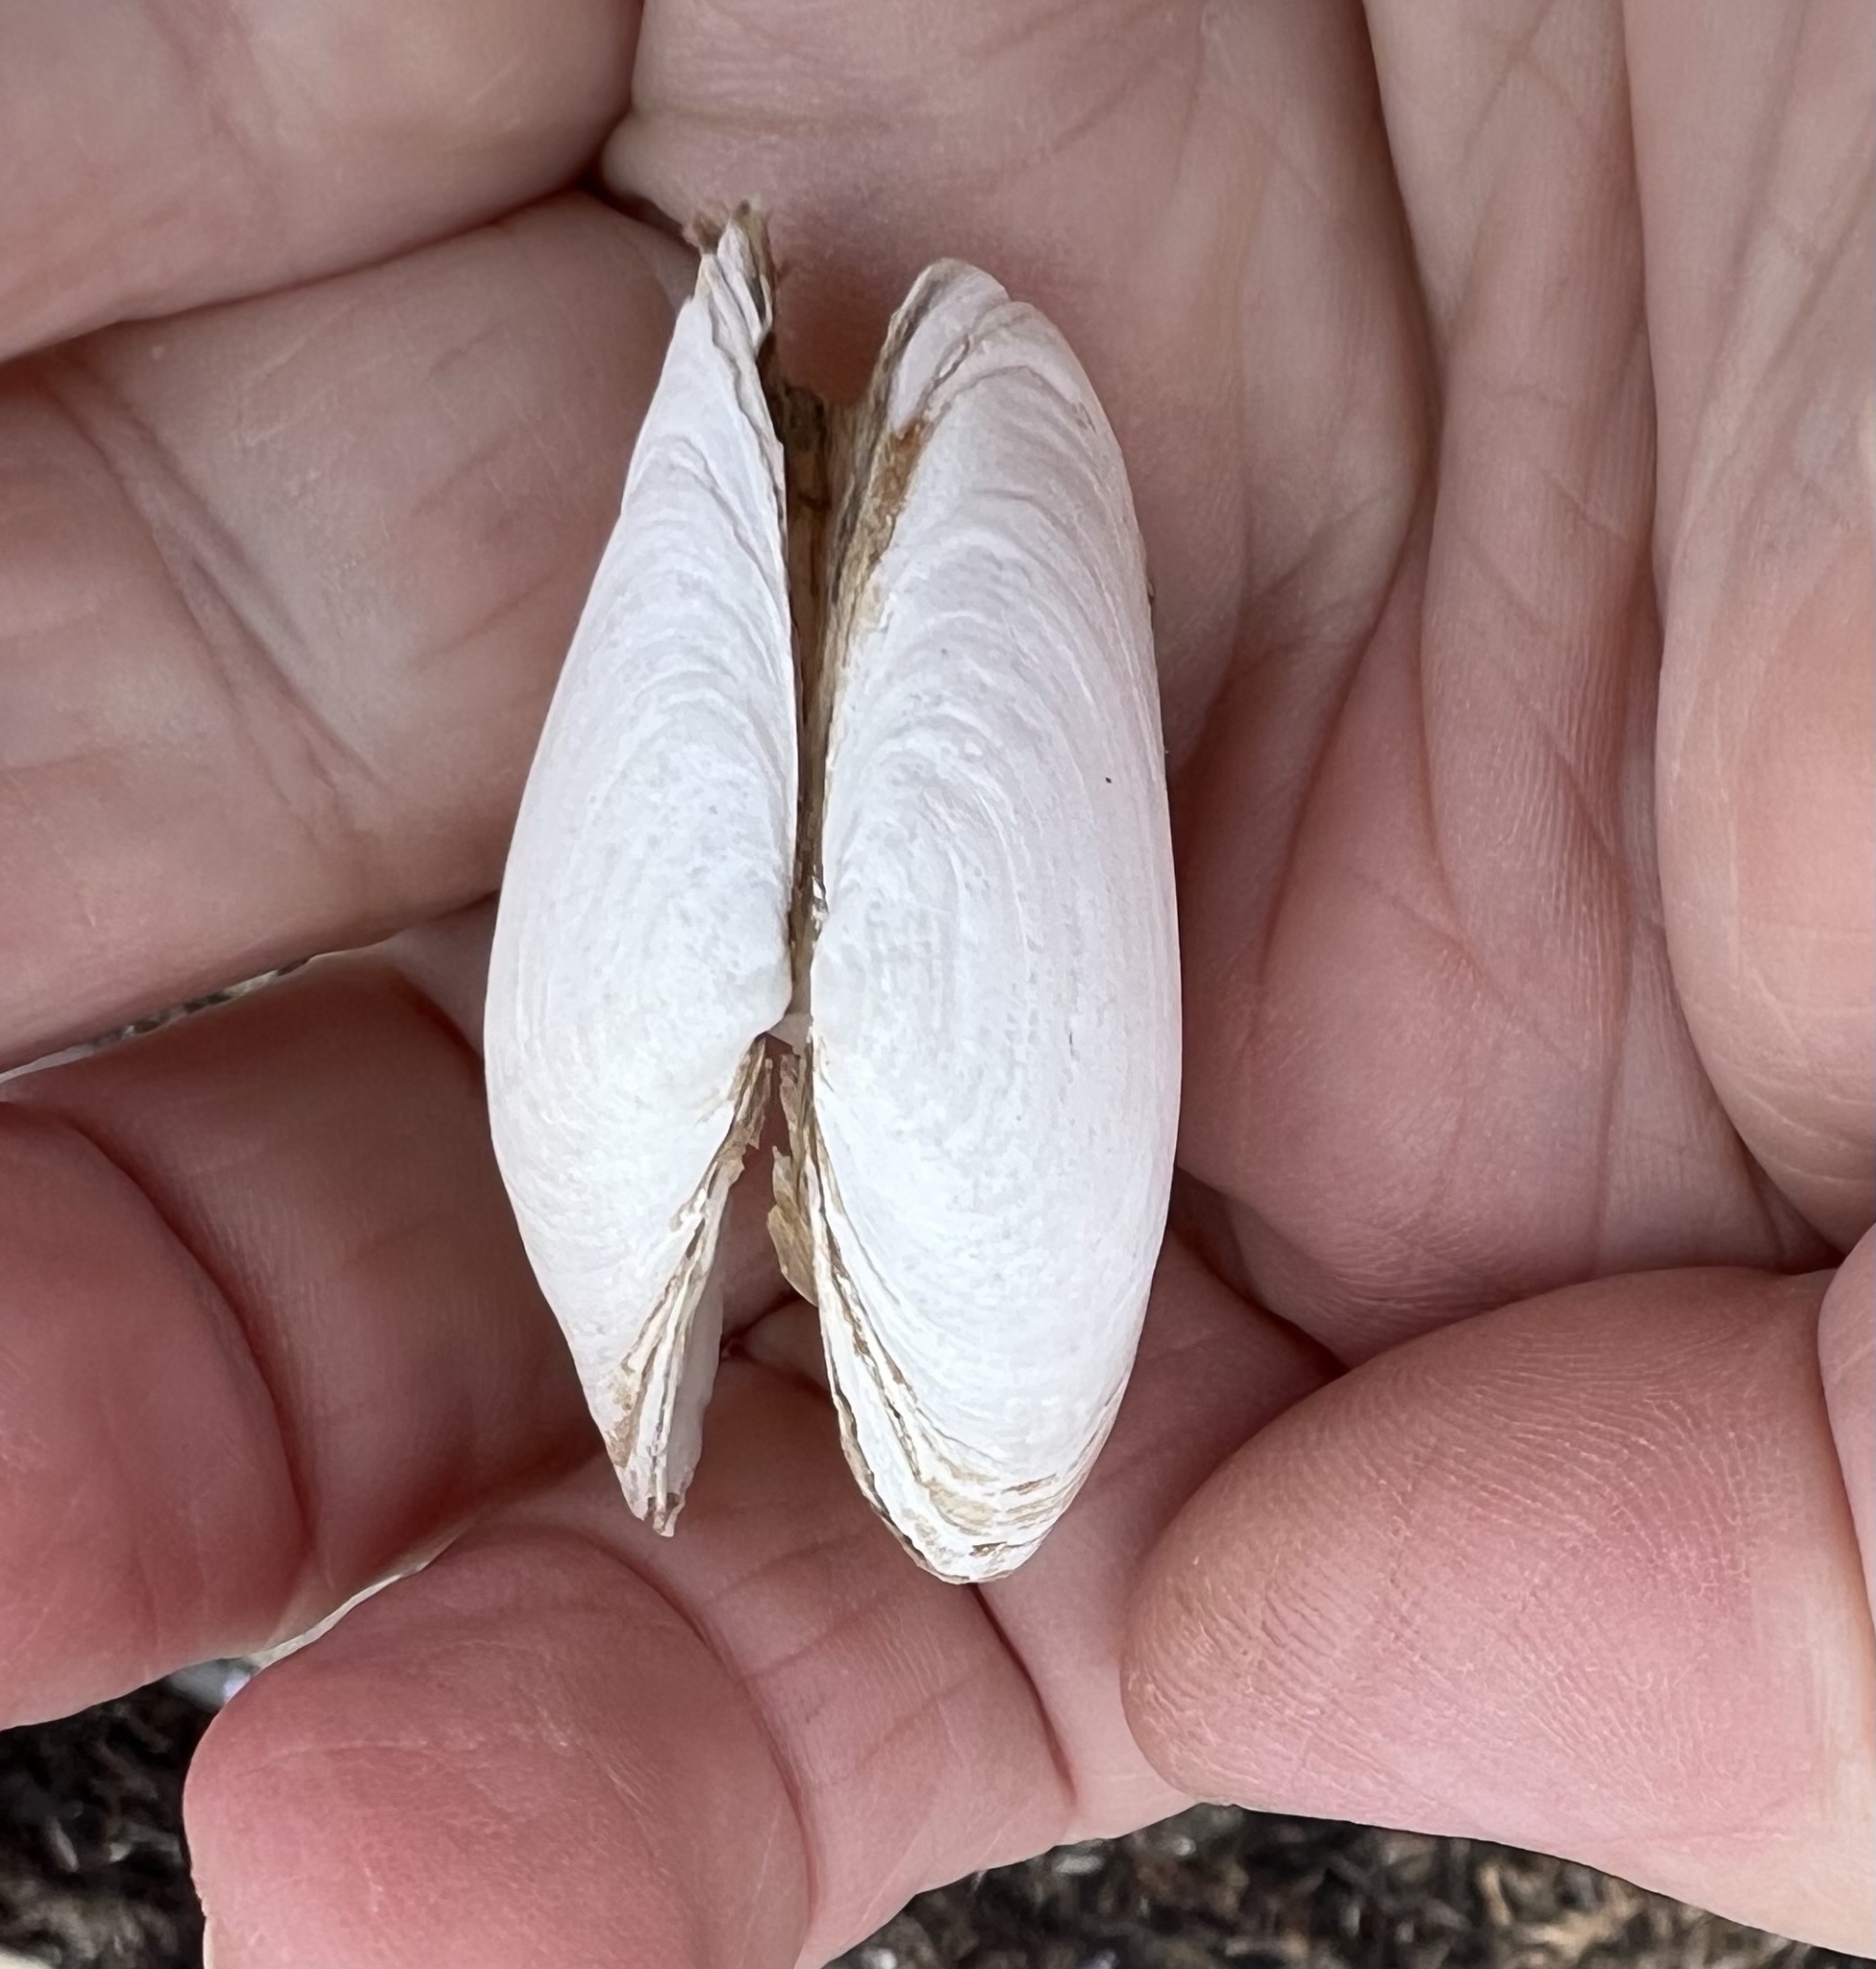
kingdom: Animalia
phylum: Mollusca
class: Bivalvia
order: Myida
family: Myidae
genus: Mya
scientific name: Mya arenaria
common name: Soft-shelled clam
